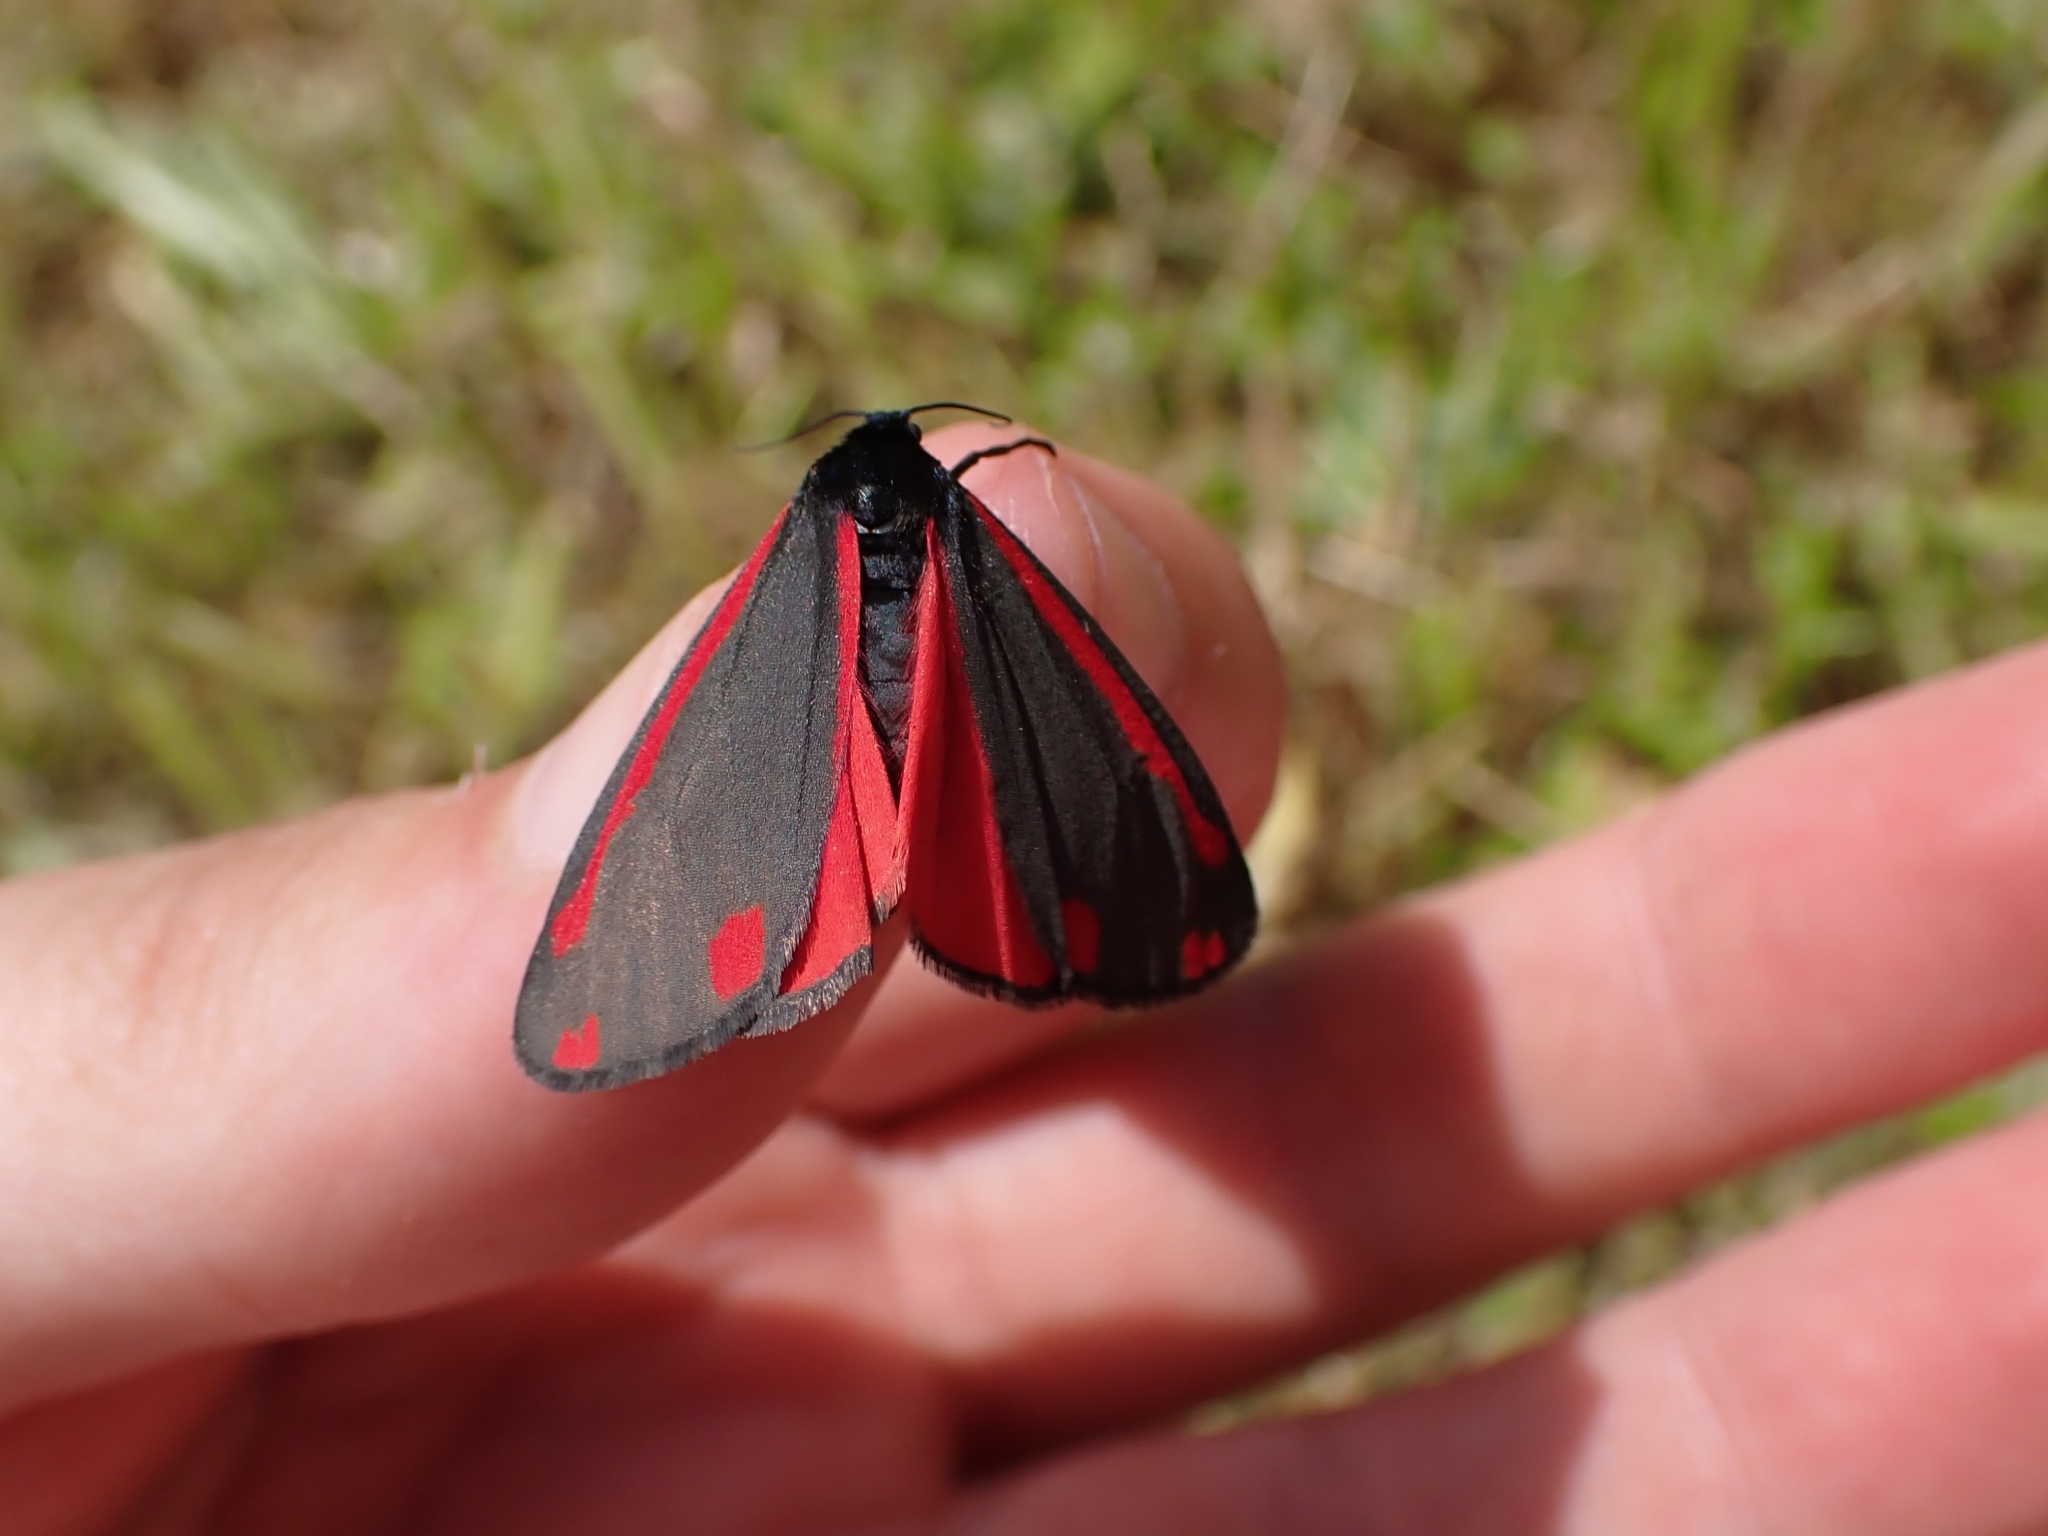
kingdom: Animalia
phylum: Arthropoda
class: Insecta
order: Lepidoptera
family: Erebidae
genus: Tyria
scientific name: Tyria jacobaeae
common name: Cinnabar
